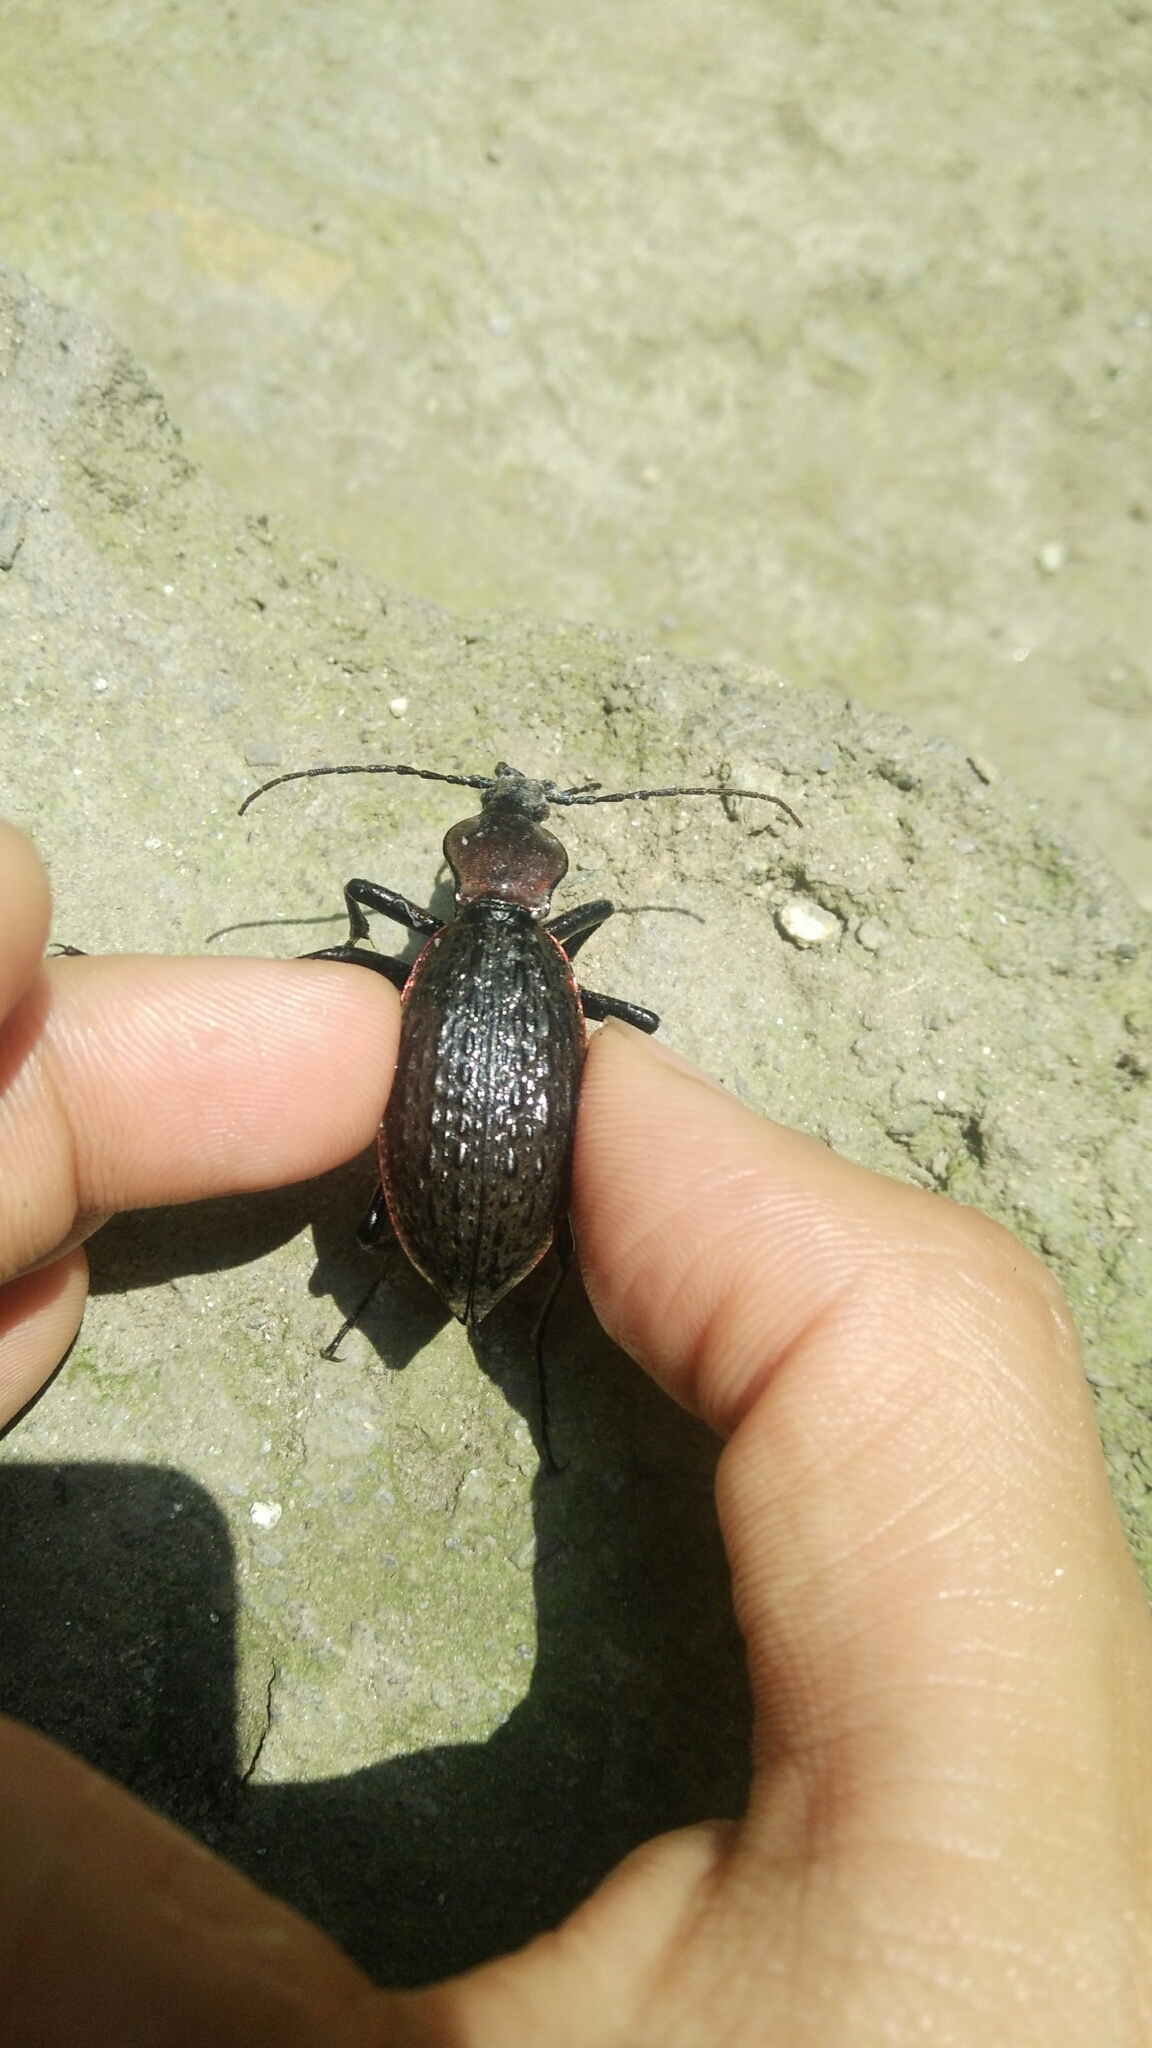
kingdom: Animalia
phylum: Arthropoda
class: Insecta
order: Coleoptera
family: Carabidae
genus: Carabus
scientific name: Carabus nankotaizanus
